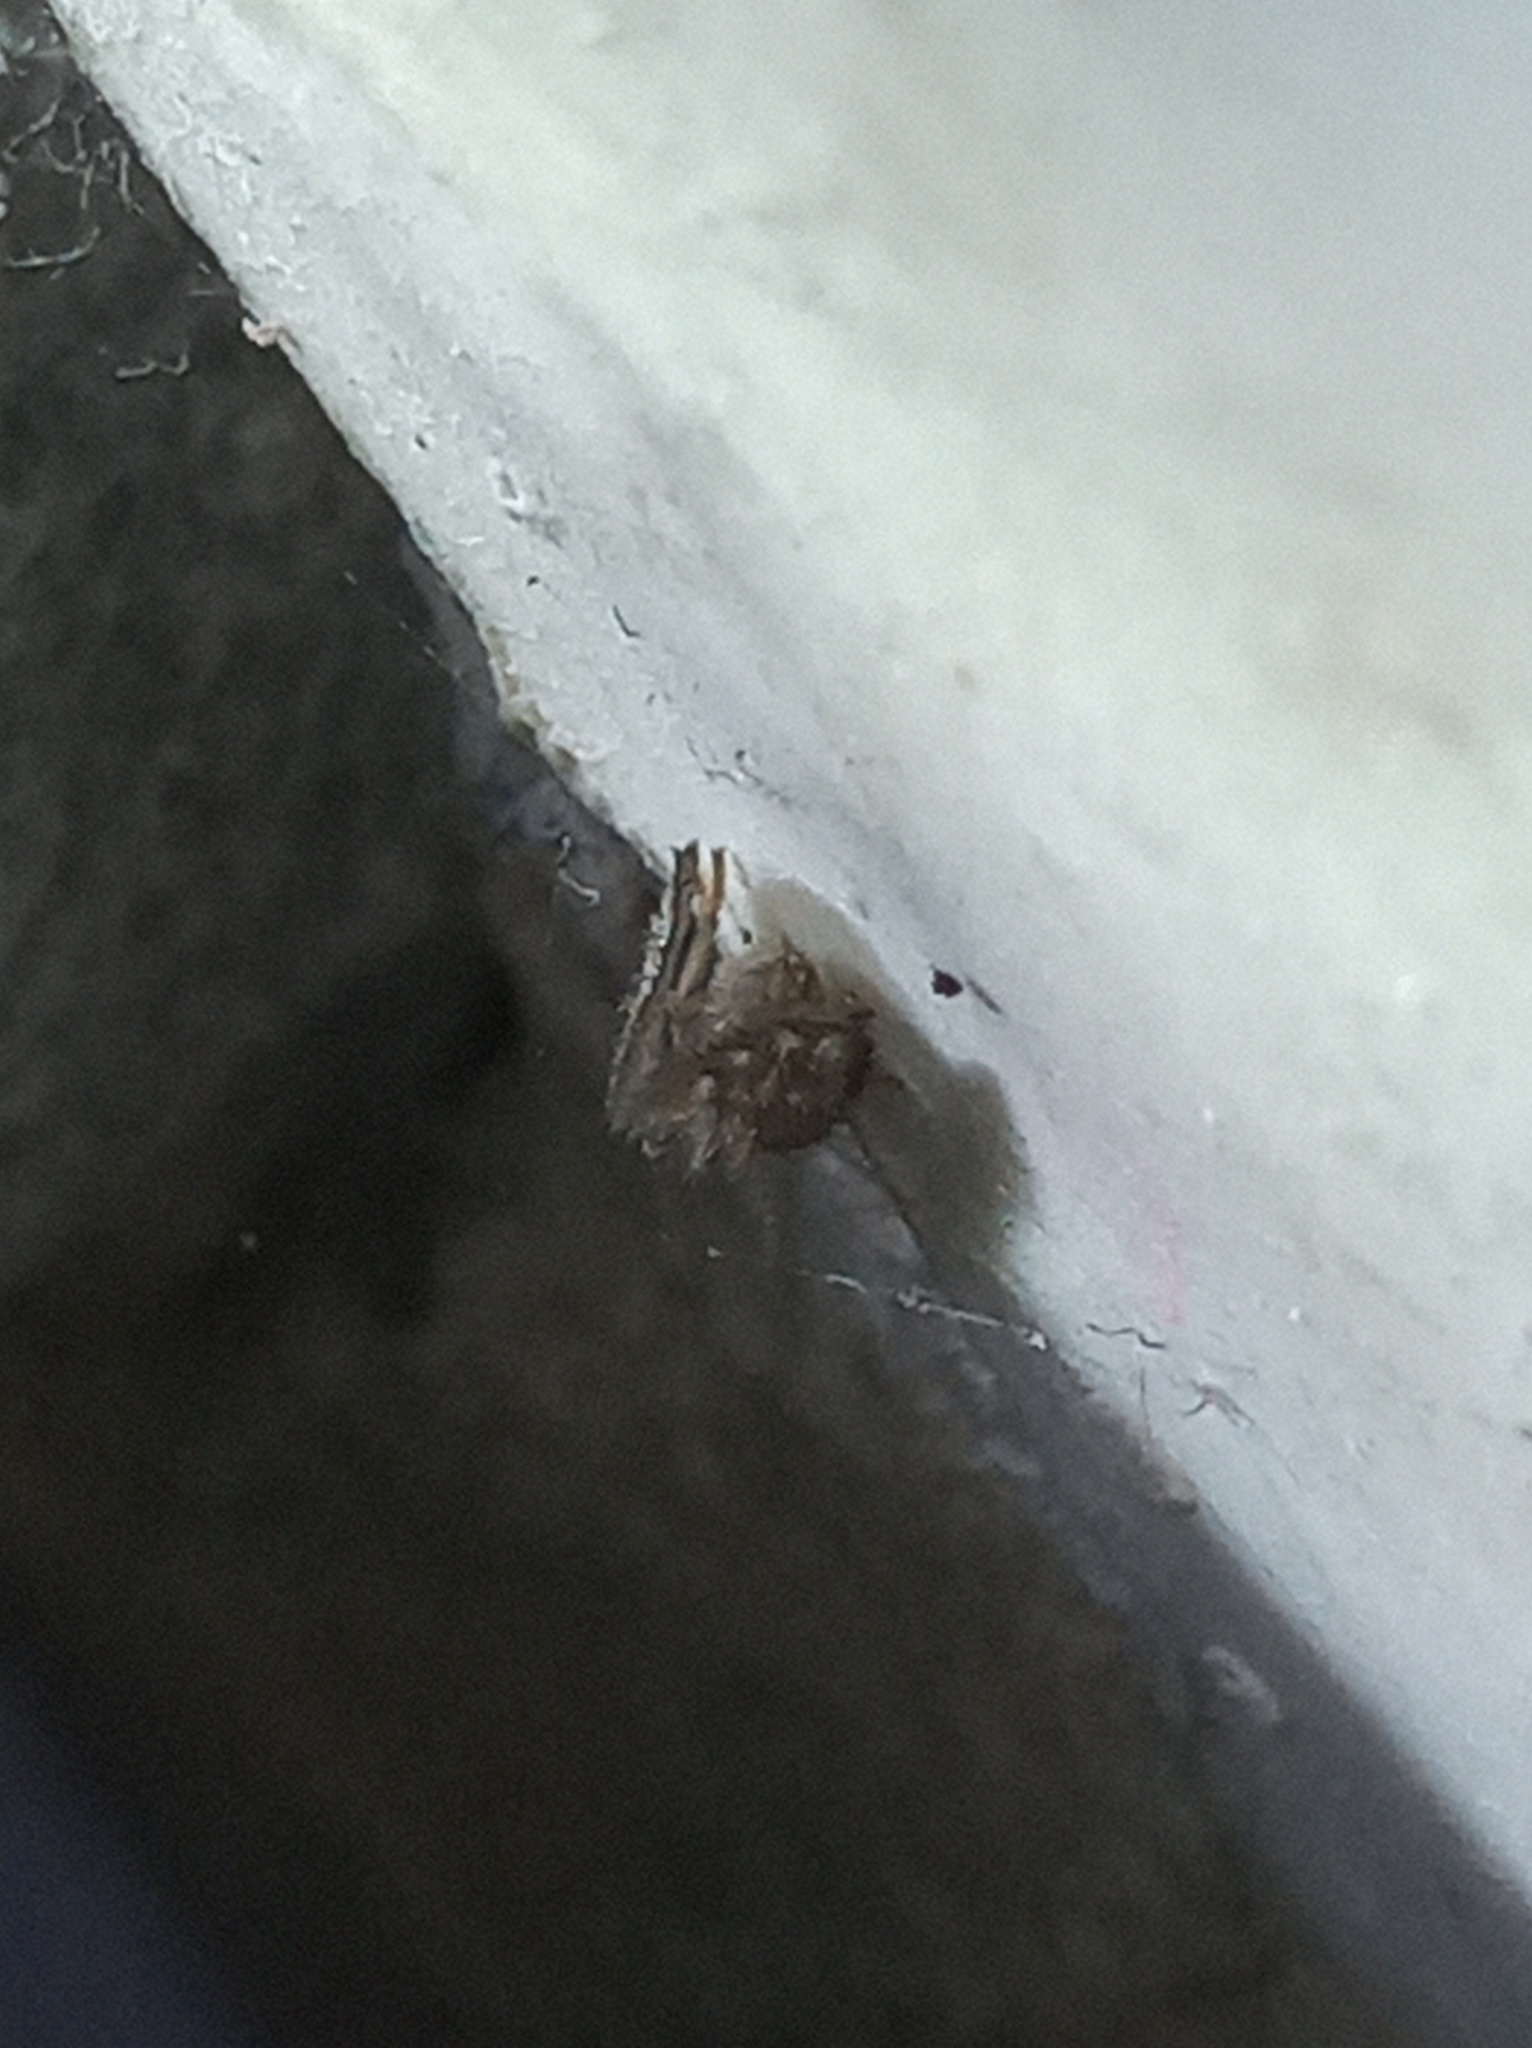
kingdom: Animalia
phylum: Arthropoda
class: Insecta
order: Diptera
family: Psychodidae
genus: Psychoda
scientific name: Psychoda alternicula
